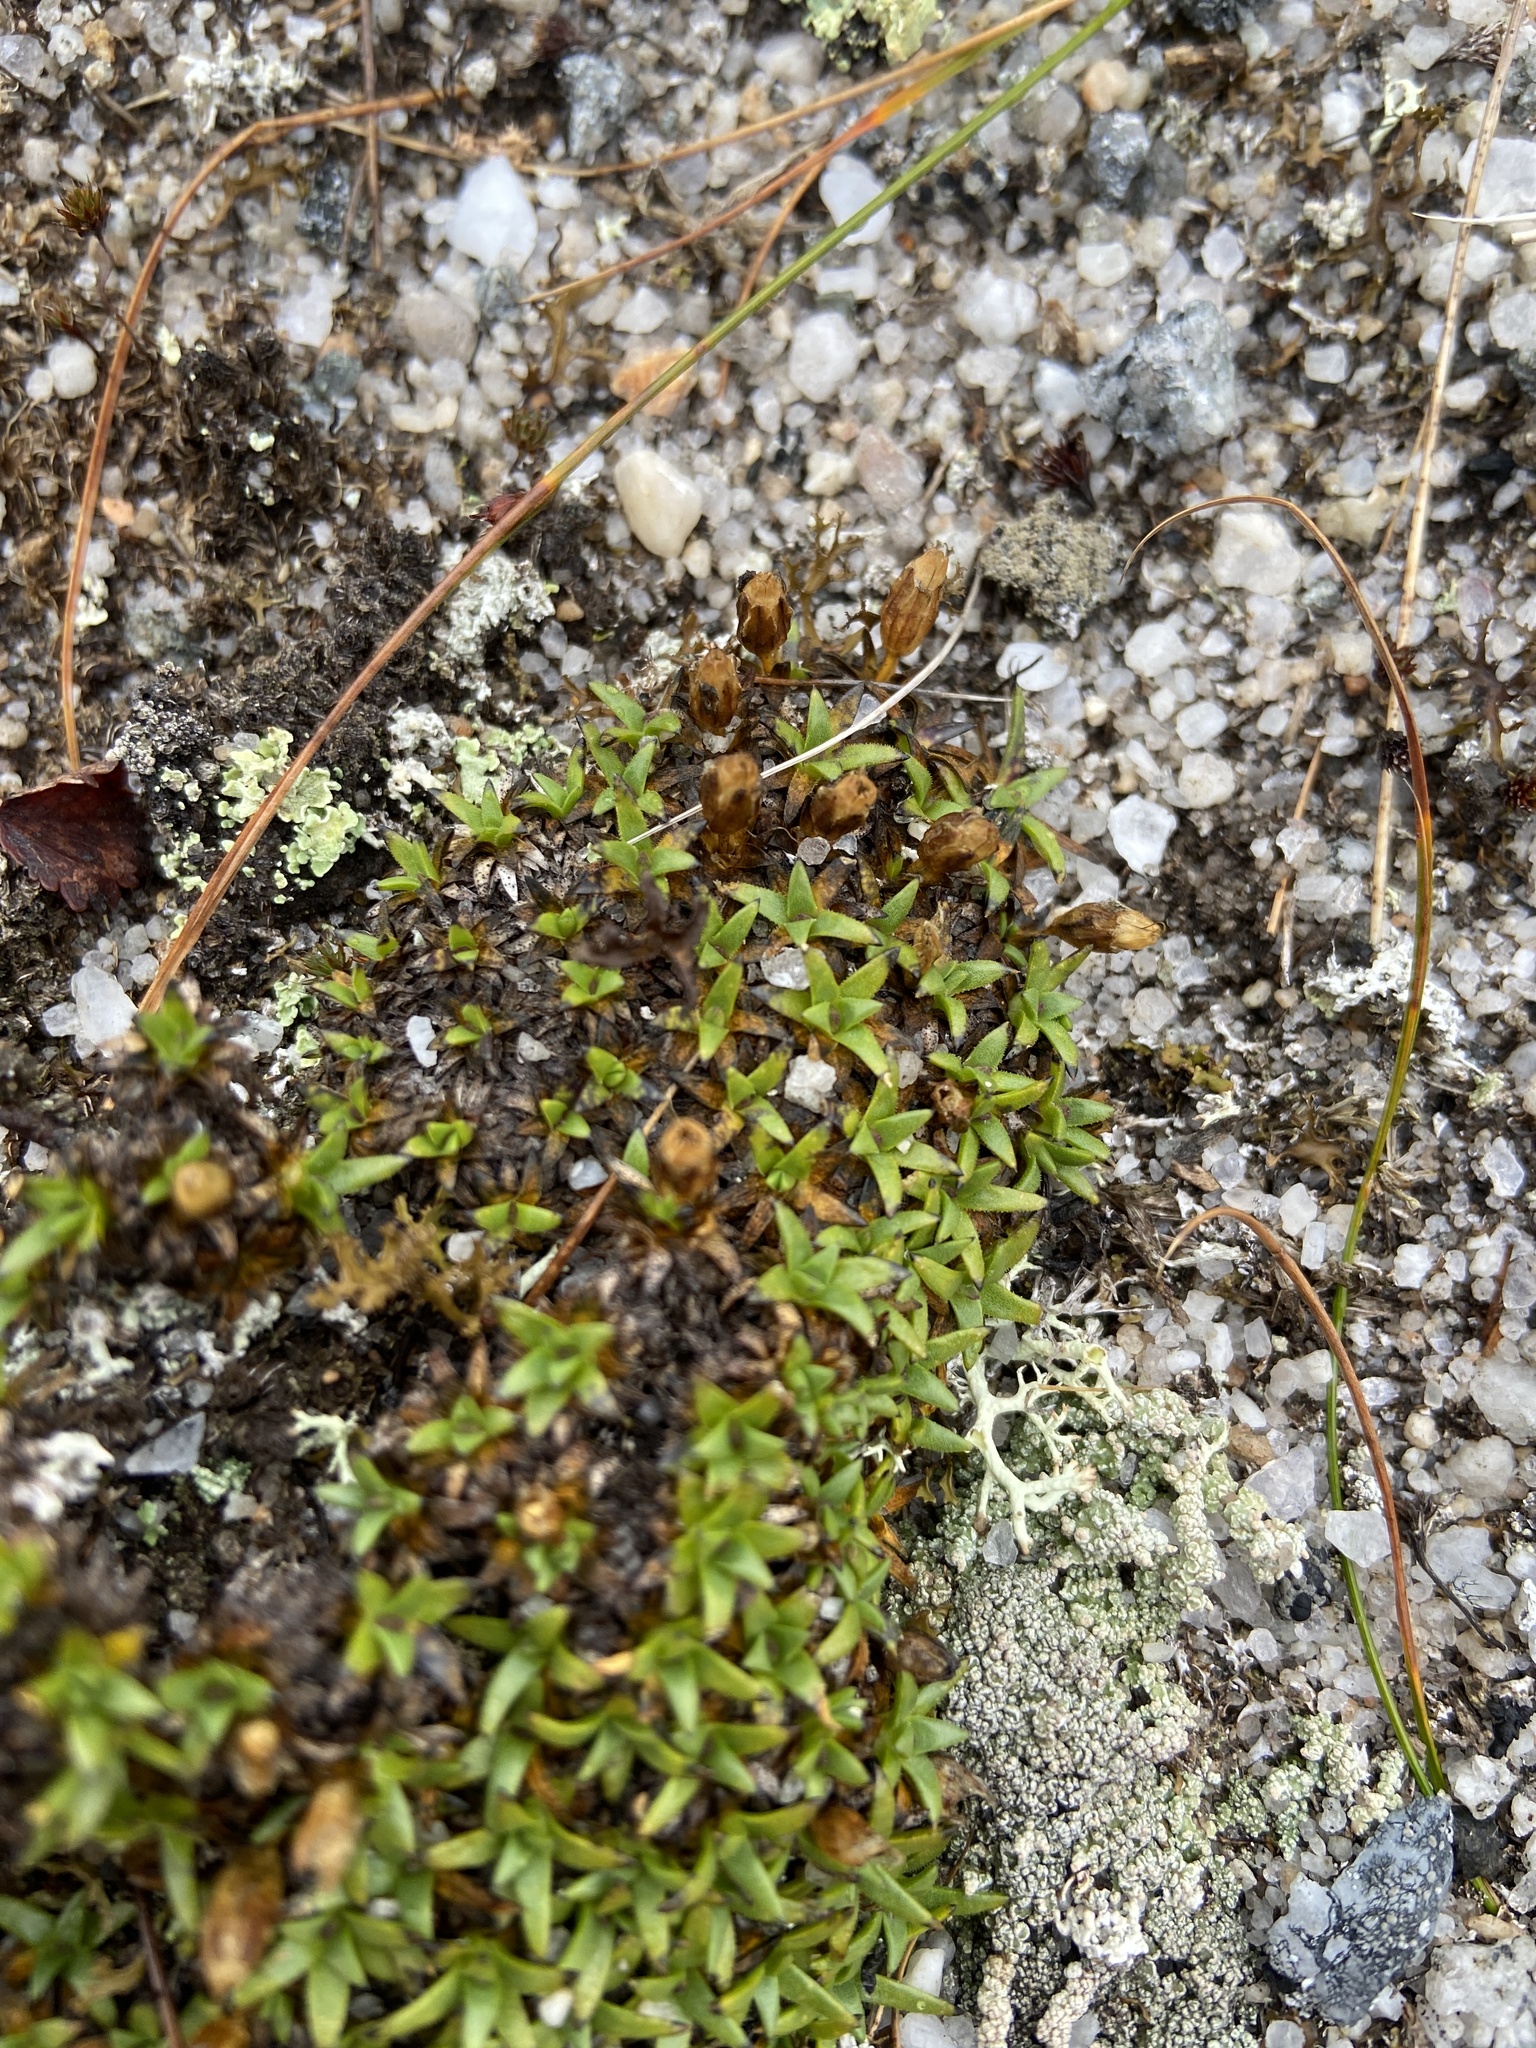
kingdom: Plantae
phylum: Tracheophyta
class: Magnoliopsida
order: Caryophyllales
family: Caryophyllaceae
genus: Silene
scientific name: Silene acaulis
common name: Moss campion
